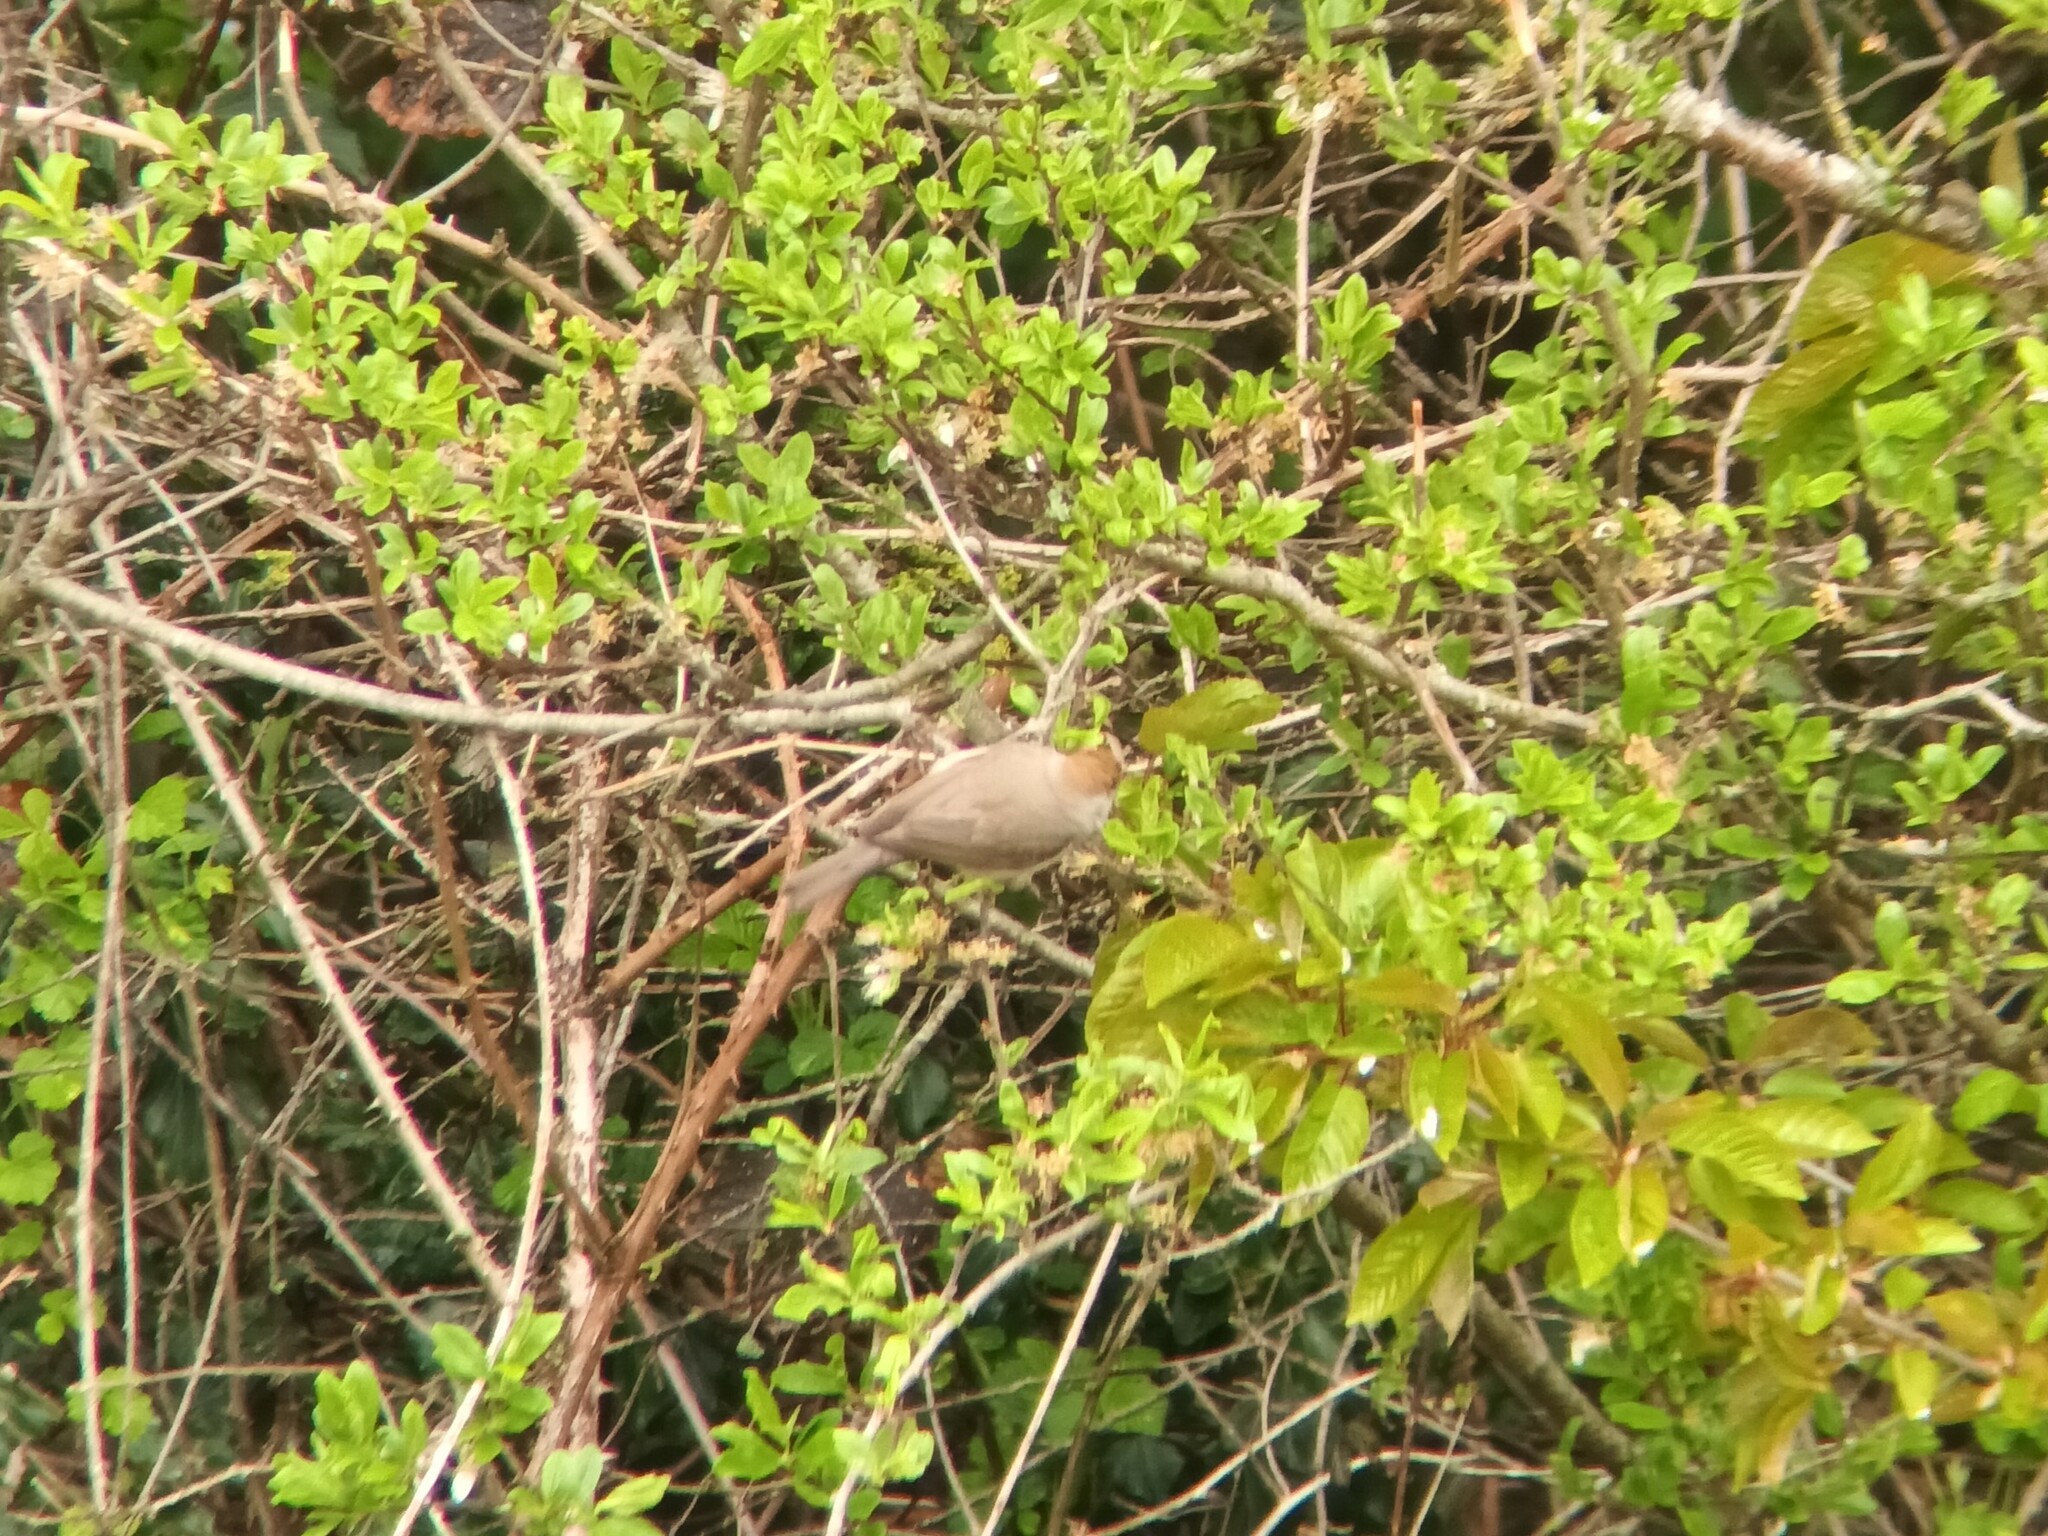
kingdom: Animalia
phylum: Chordata
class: Aves
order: Passeriformes
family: Sylviidae
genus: Sylvia
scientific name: Sylvia atricapilla
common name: Eurasian blackcap
